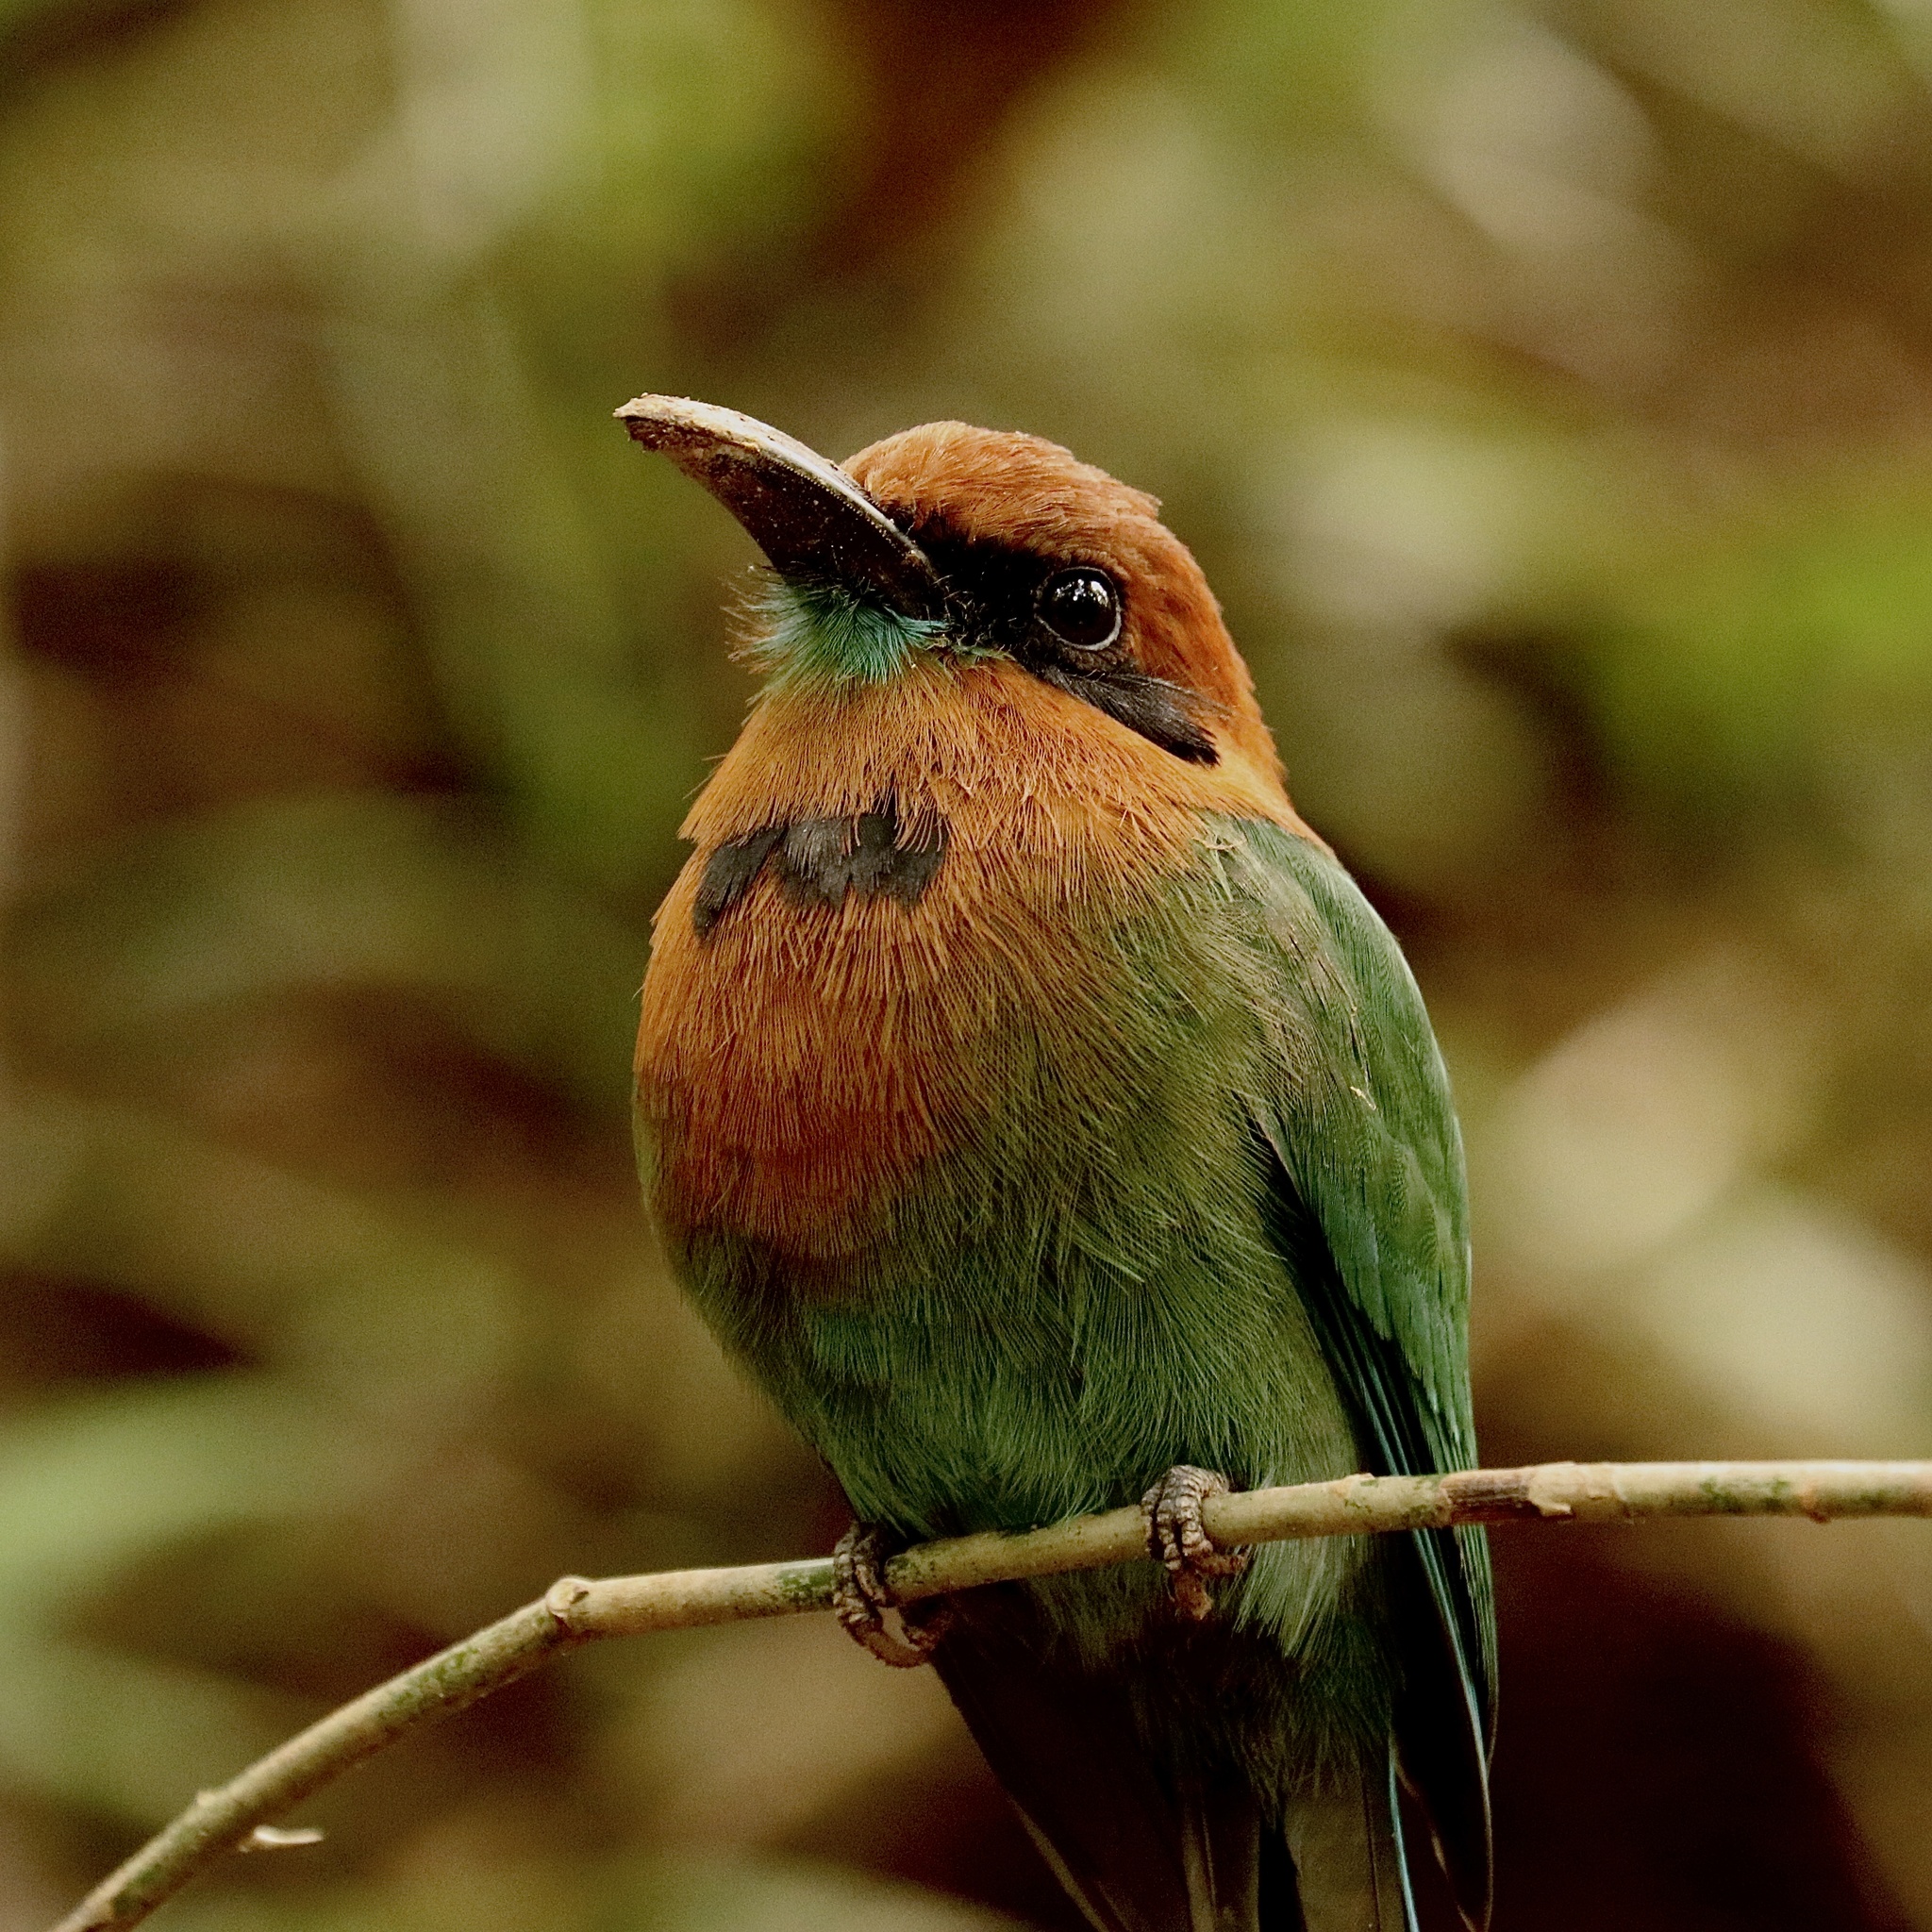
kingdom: Animalia
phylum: Chordata
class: Aves
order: Coraciiformes
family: Momotidae
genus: Electron
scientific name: Electron platyrhynchum
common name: Broad-billed motmot
